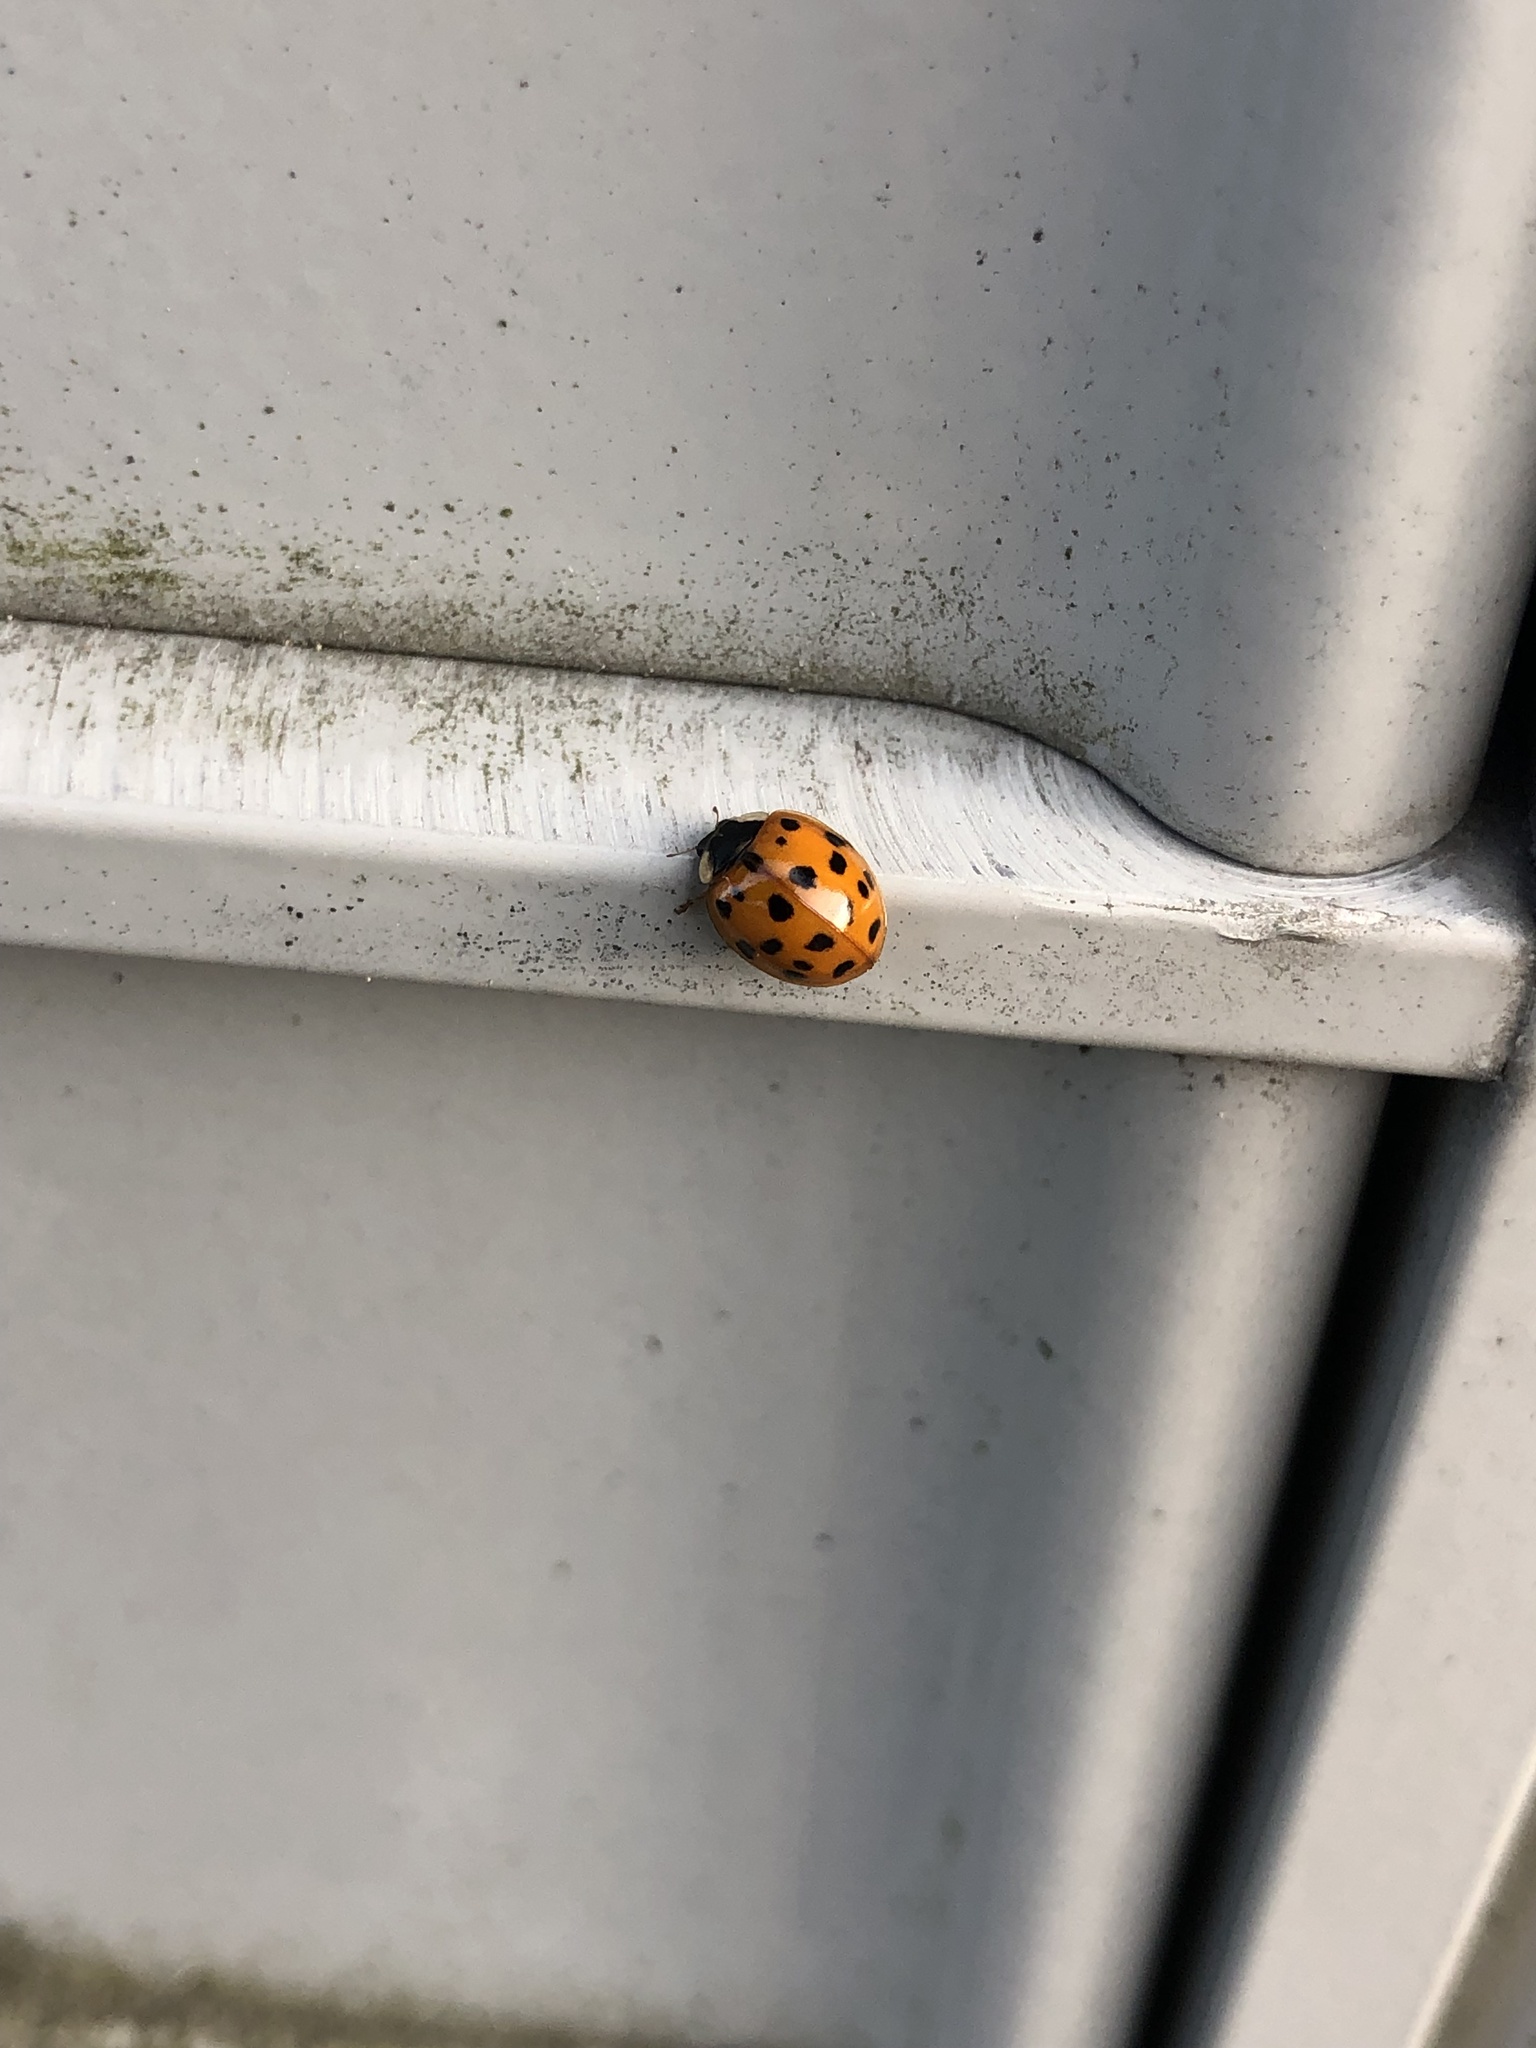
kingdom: Animalia
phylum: Arthropoda
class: Insecta
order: Coleoptera
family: Coccinellidae
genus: Harmonia
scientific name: Harmonia axyridis
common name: Harlequin ladybird
